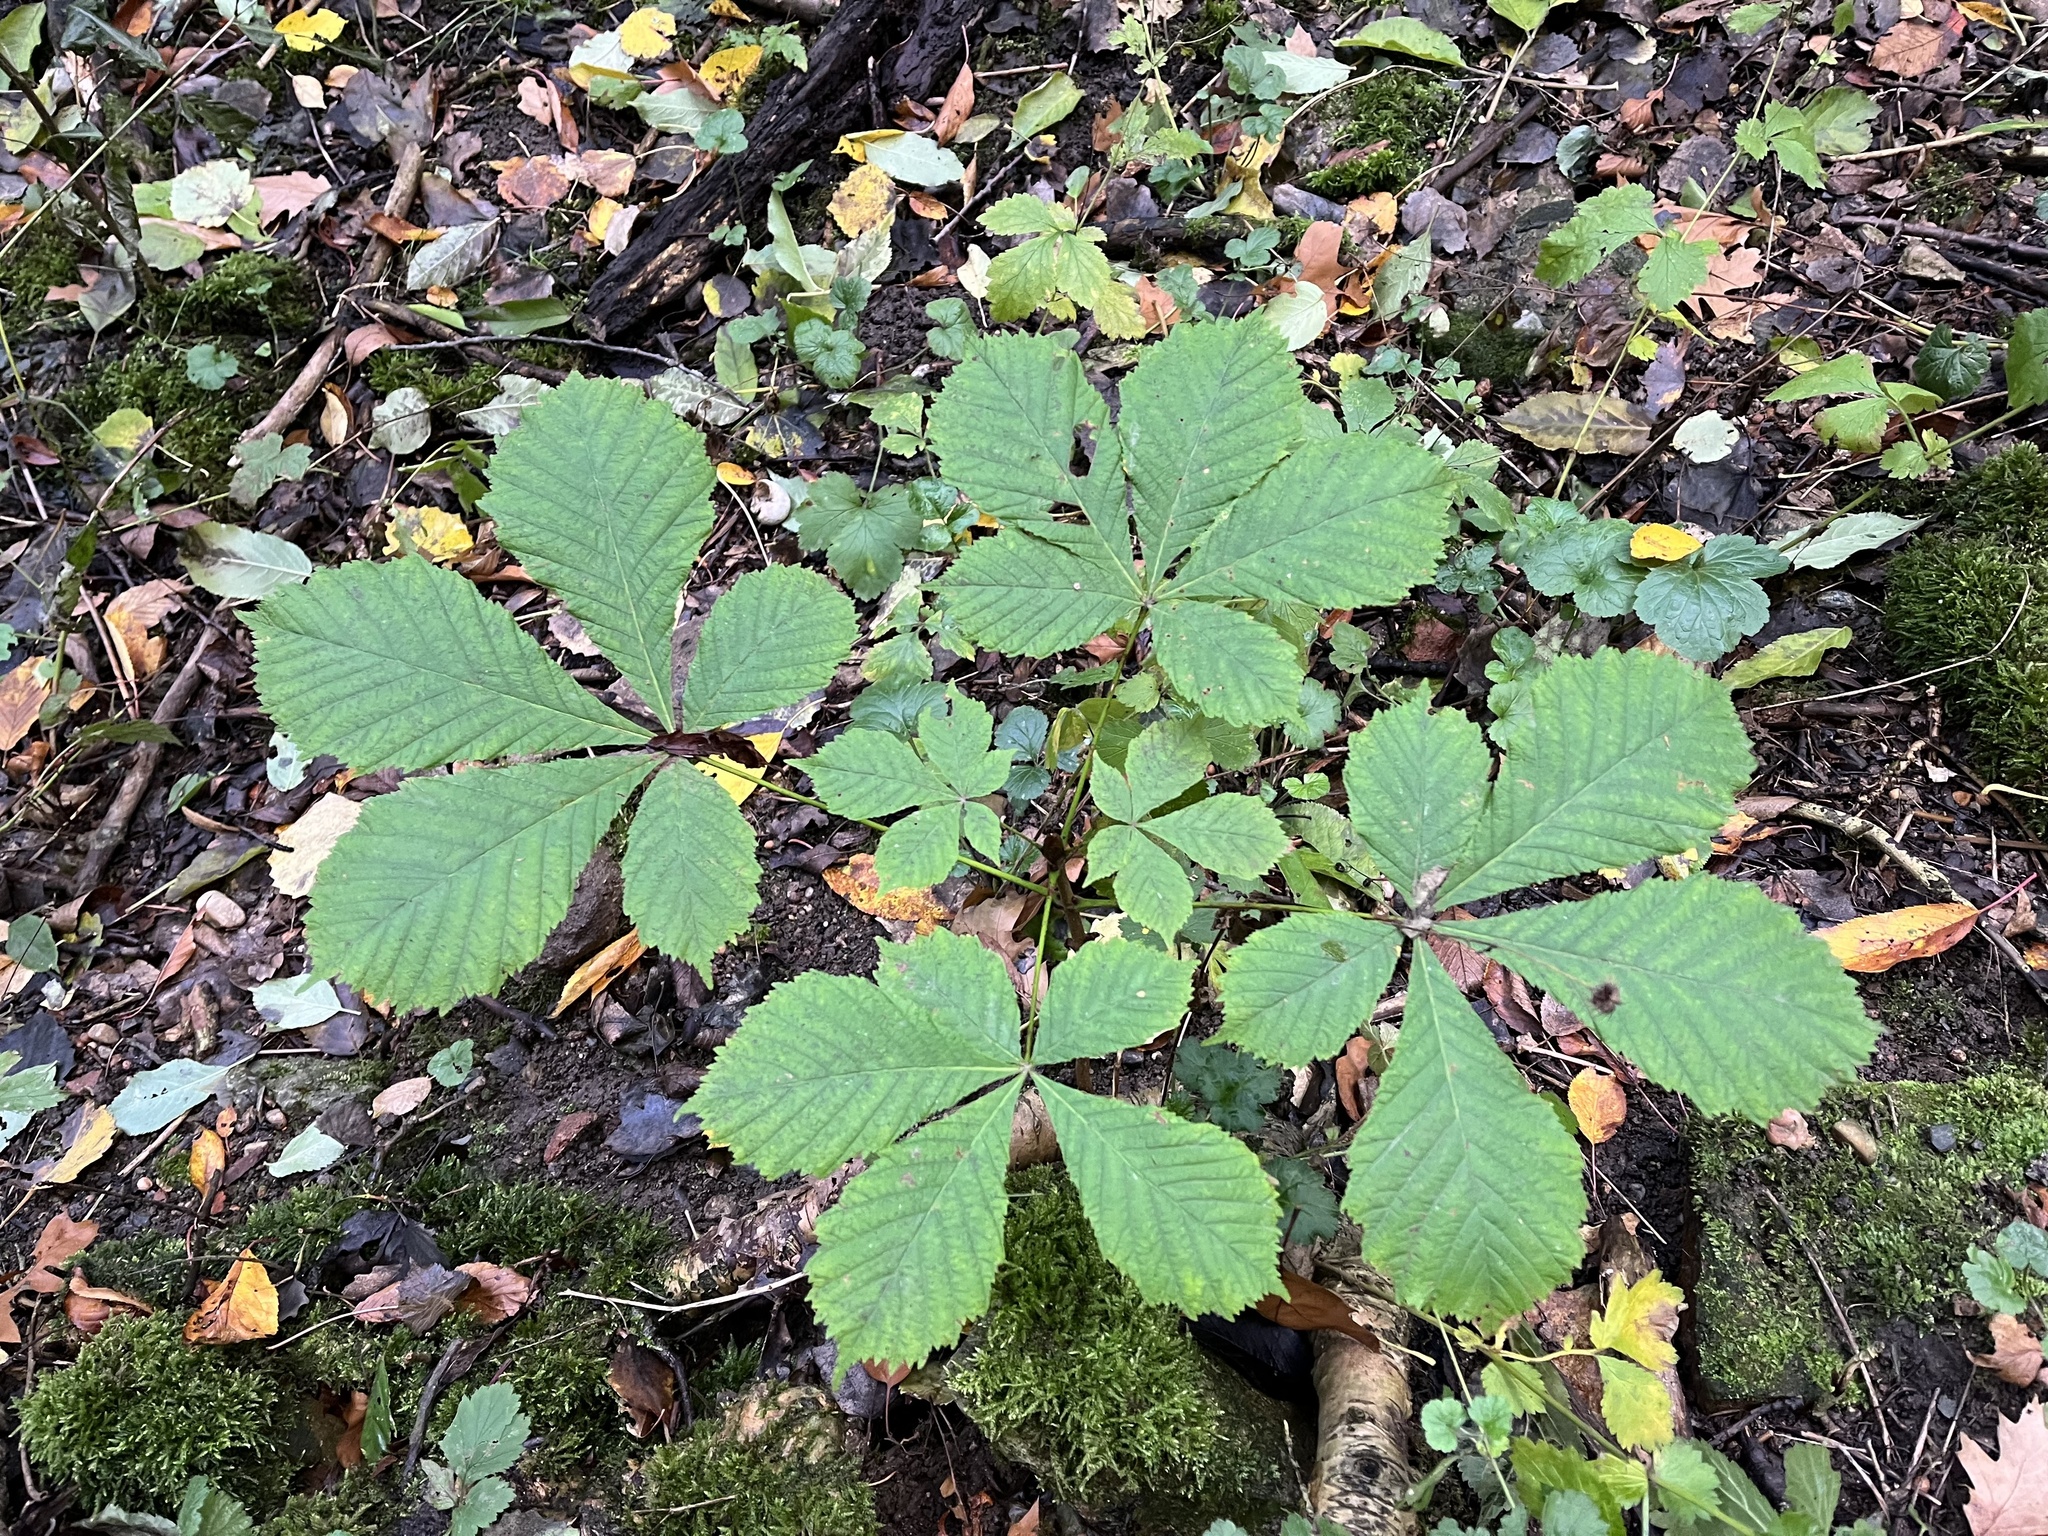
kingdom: Plantae
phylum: Tracheophyta
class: Magnoliopsida
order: Sapindales
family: Sapindaceae
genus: Aesculus
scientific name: Aesculus hippocastanum
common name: Horse-chestnut
